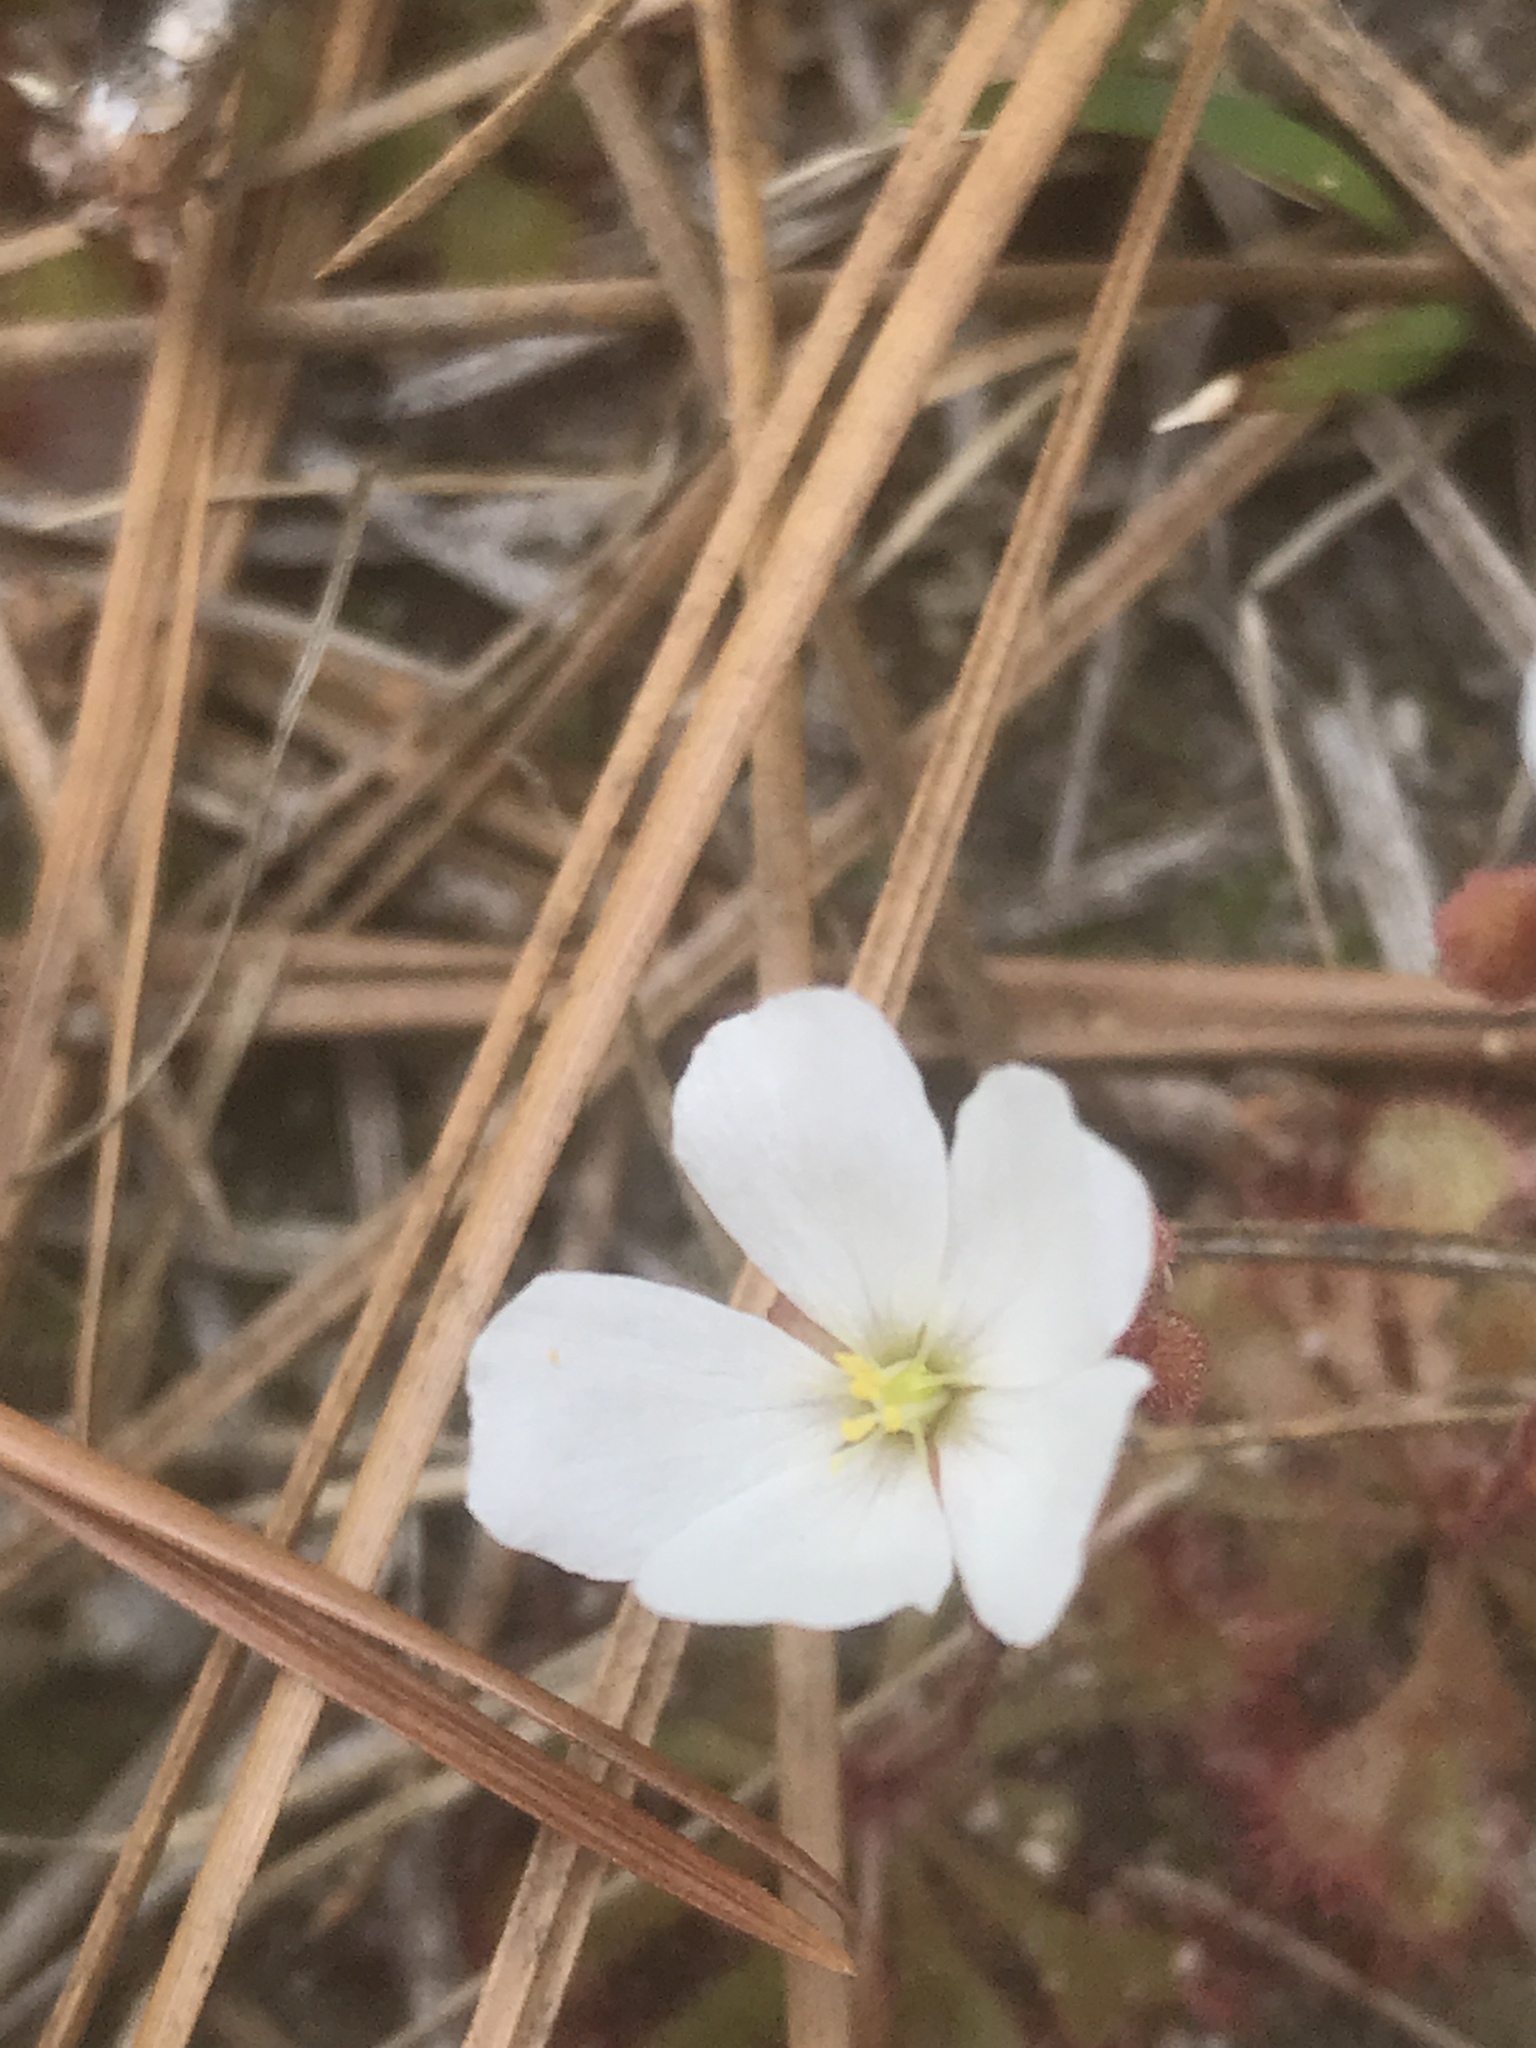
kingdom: Plantae
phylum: Tracheophyta
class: Magnoliopsida
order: Caryophyllales
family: Droseraceae
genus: Drosera
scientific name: Drosera brevifolia
